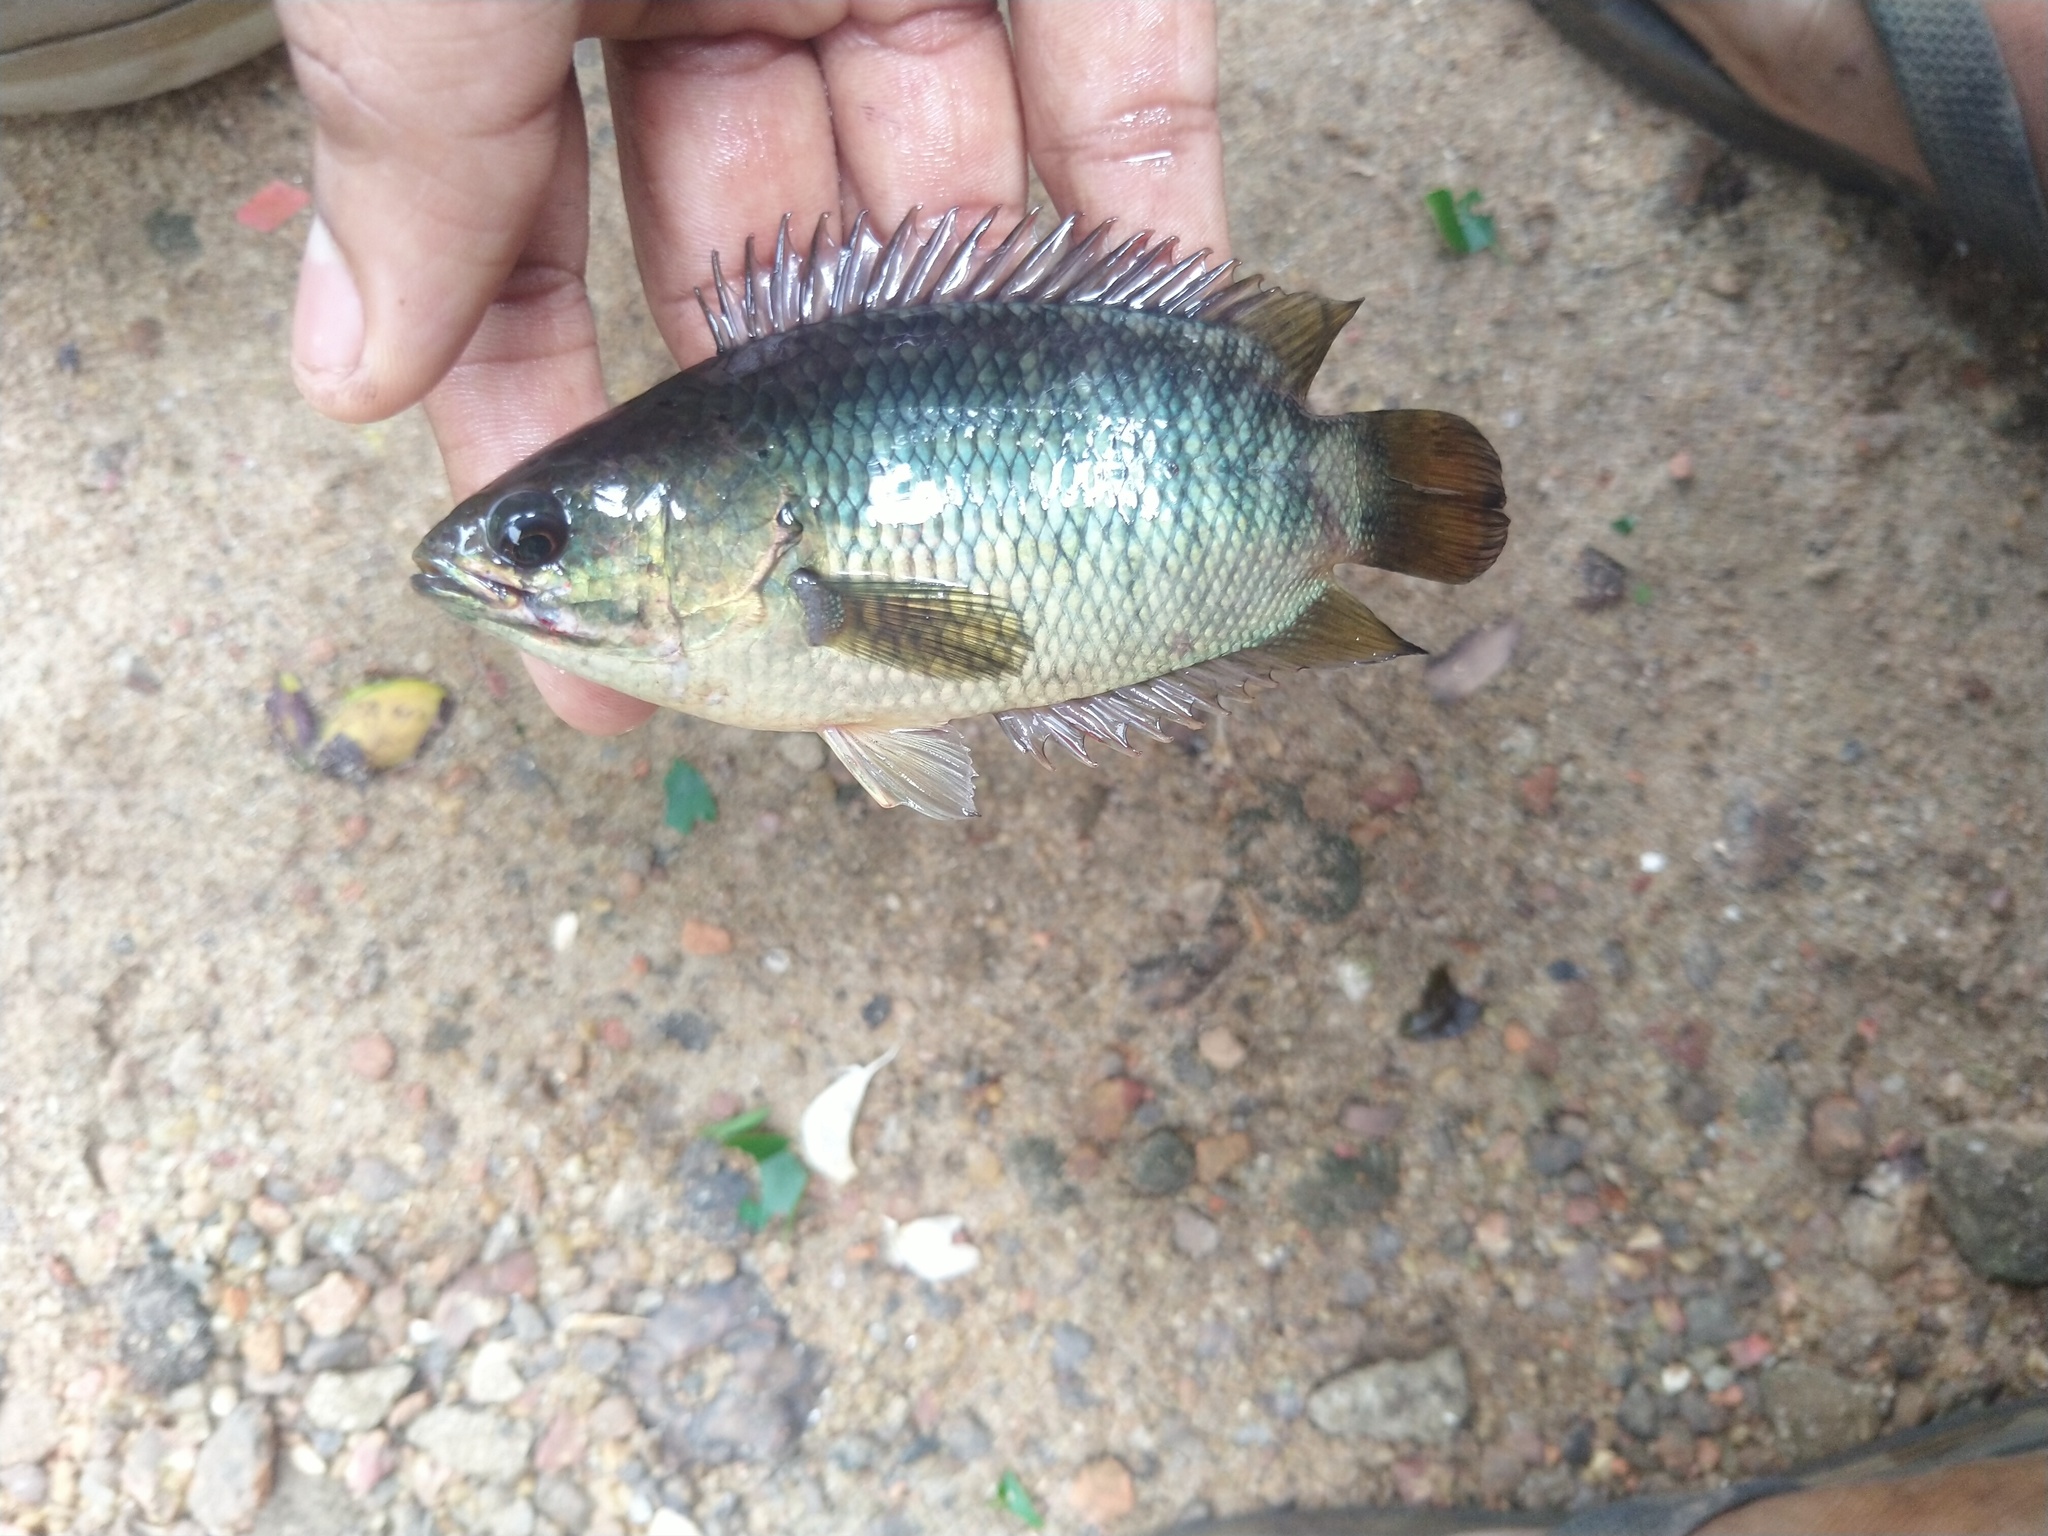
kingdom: Animalia
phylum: Chordata
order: Perciformes
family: Anabantidae
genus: Anabas
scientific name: Anabas testudineus
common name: Climbing perch
